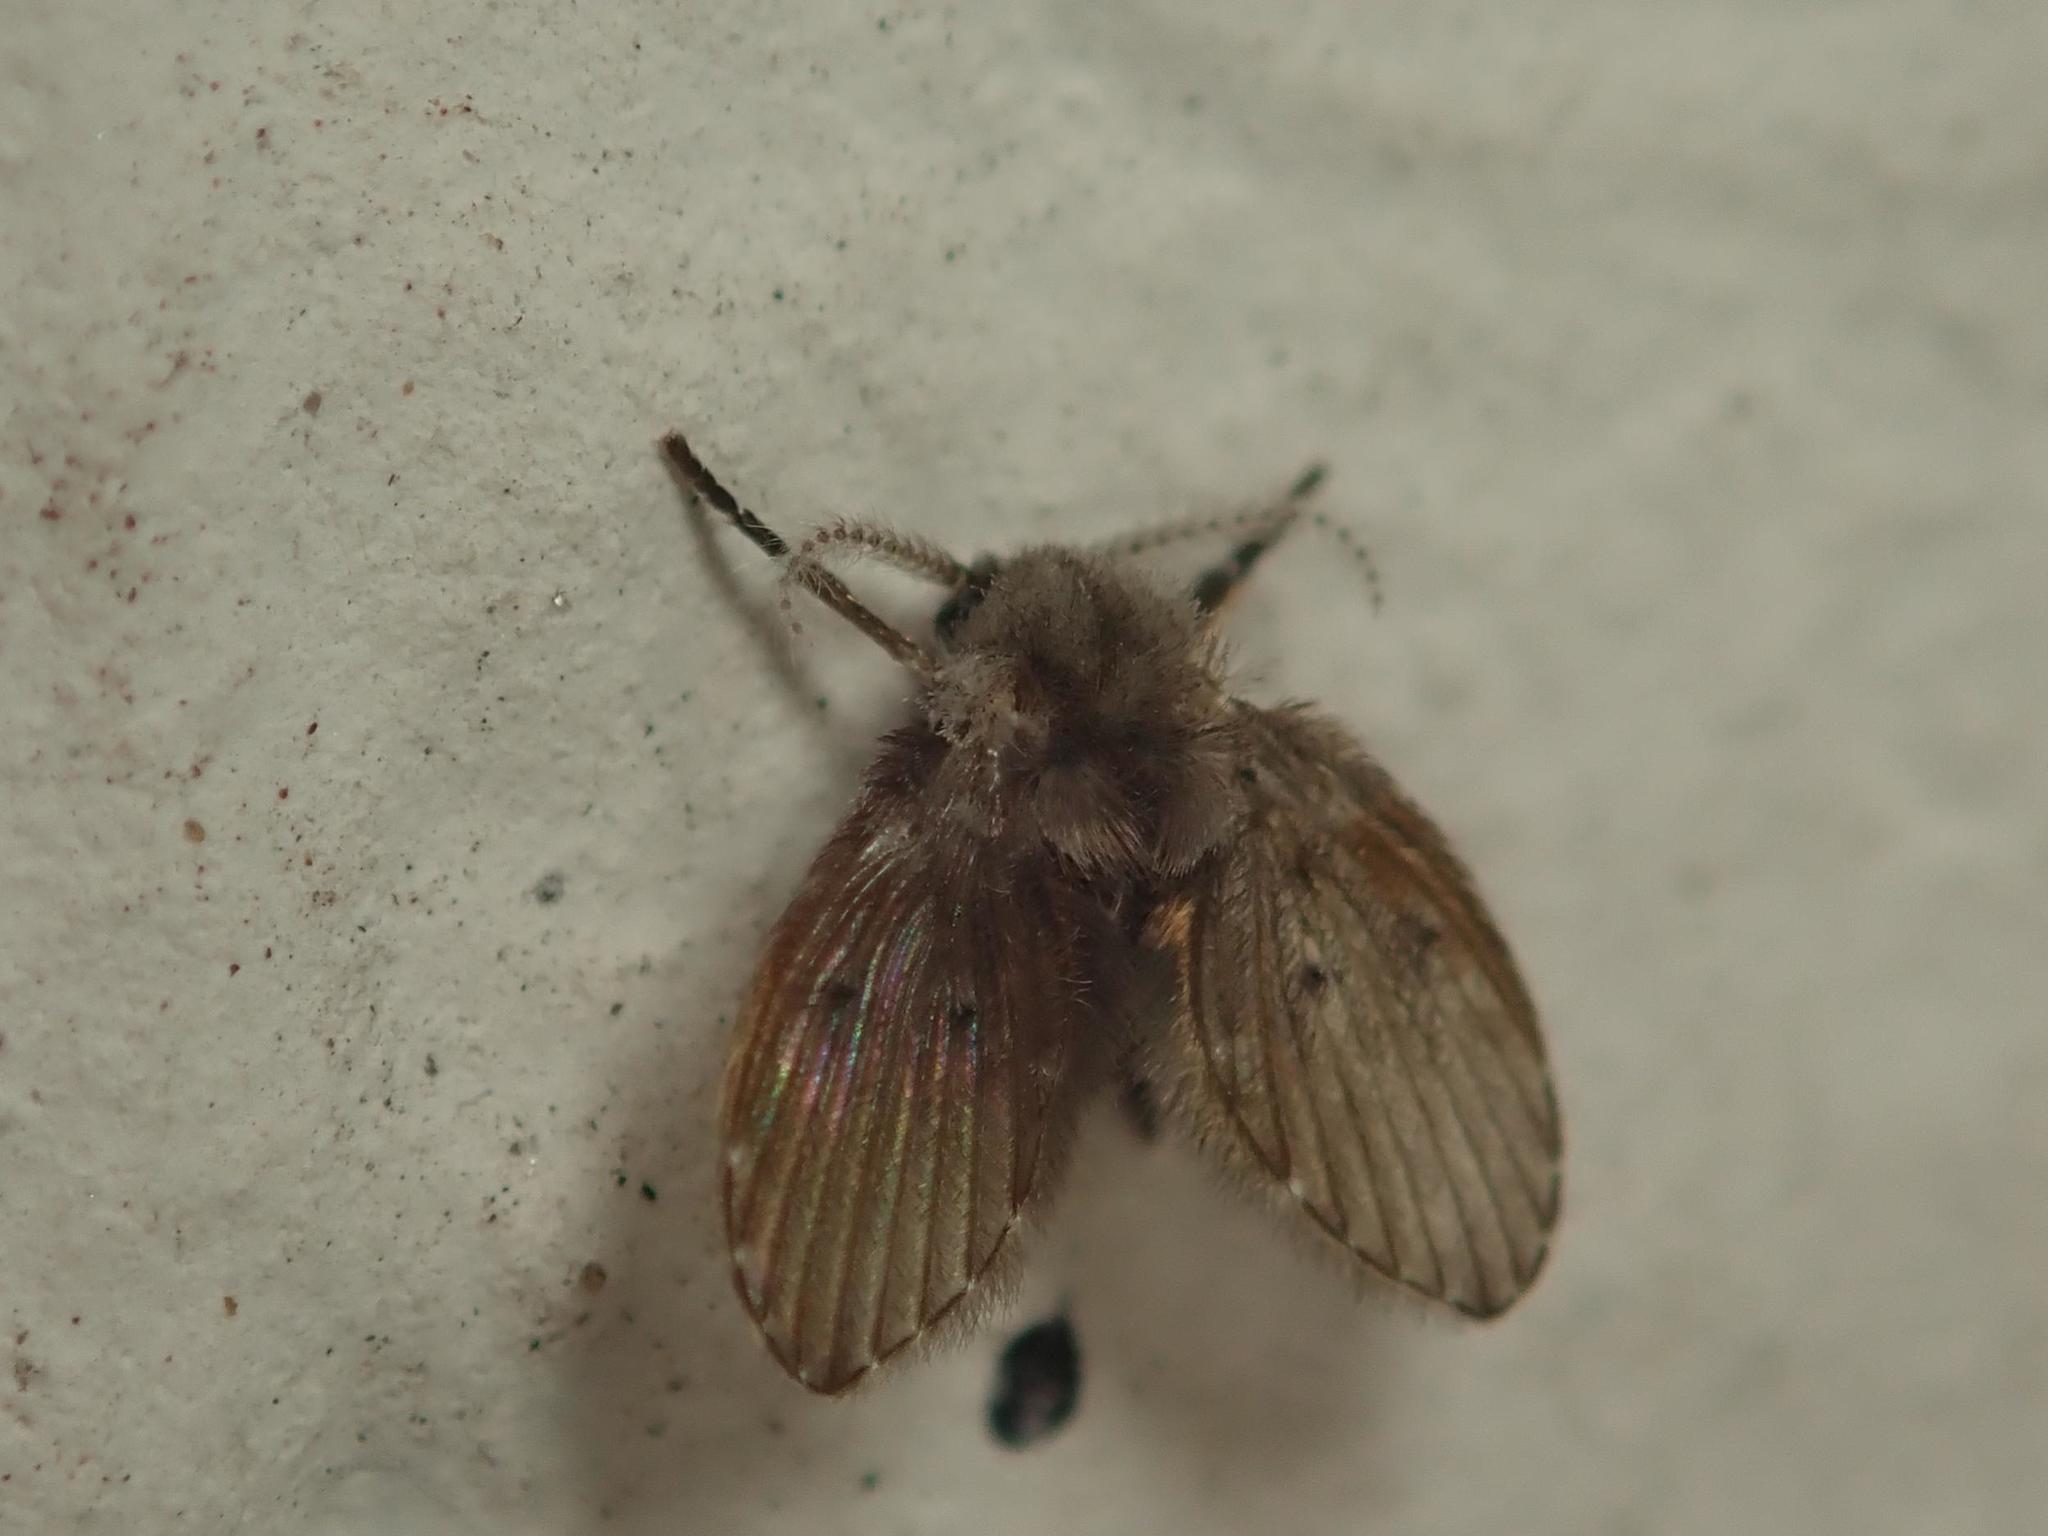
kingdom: Animalia
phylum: Arthropoda
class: Insecta
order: Diptera
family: Psychodidae
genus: Clogmia
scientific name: Clogmia albipunctatus
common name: White-spotted moth fly
